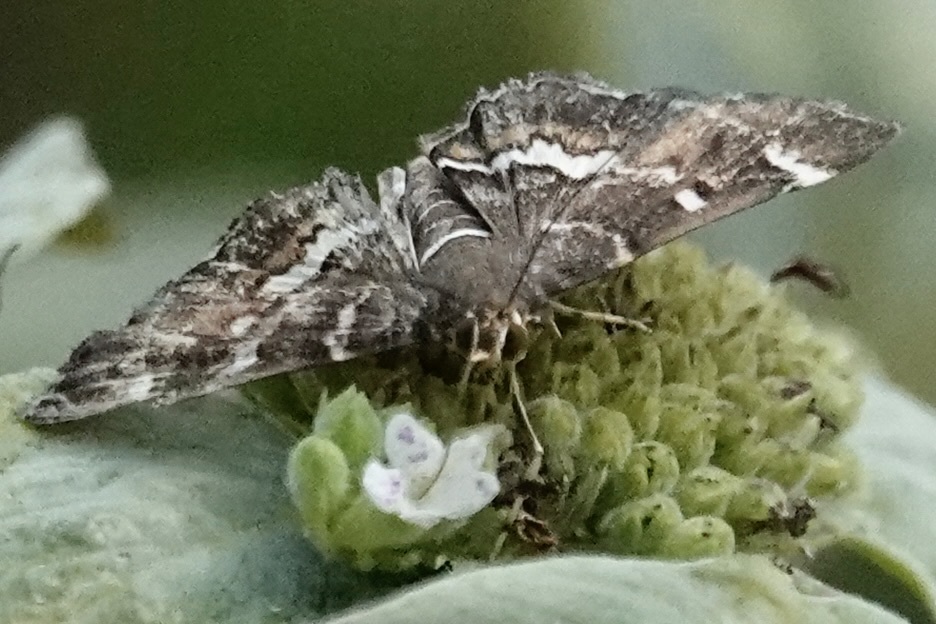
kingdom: Animalia
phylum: Arthropoda
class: Insecta
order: Lepidoptera
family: Crambidae
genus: Hymenia
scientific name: Hymenia perspectalis
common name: Spotted beet webworm
